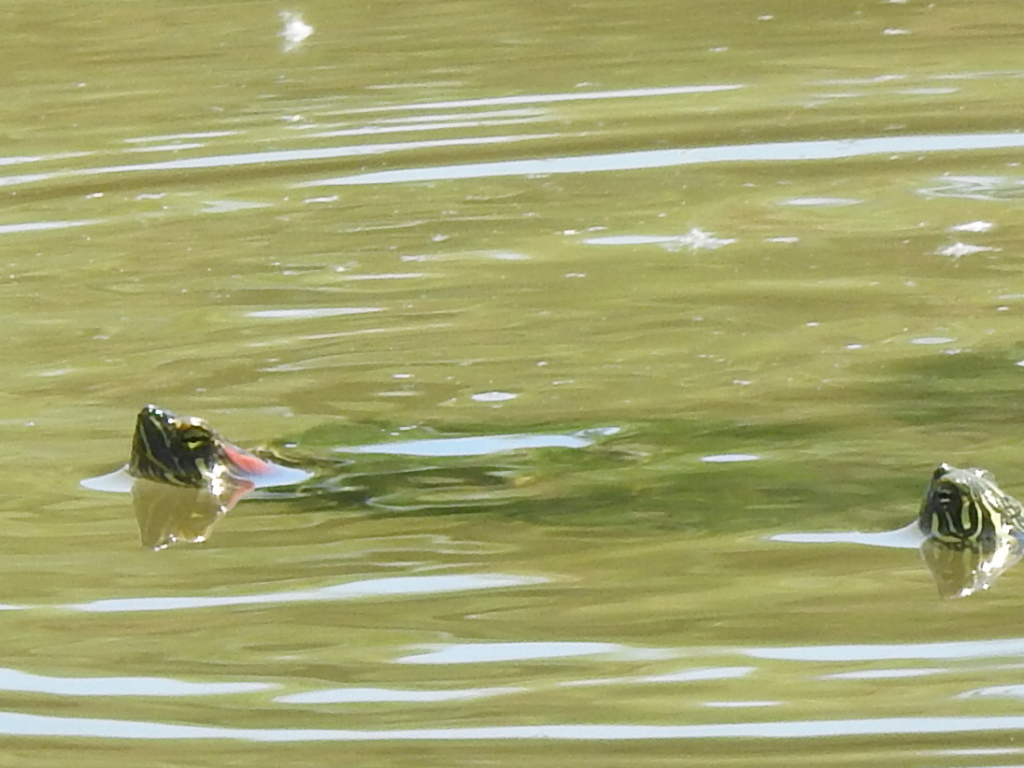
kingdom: Animalia
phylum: Chordata
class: Testudines
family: Emydidae
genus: Trachemys
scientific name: Trachemys scripta
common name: Slider
